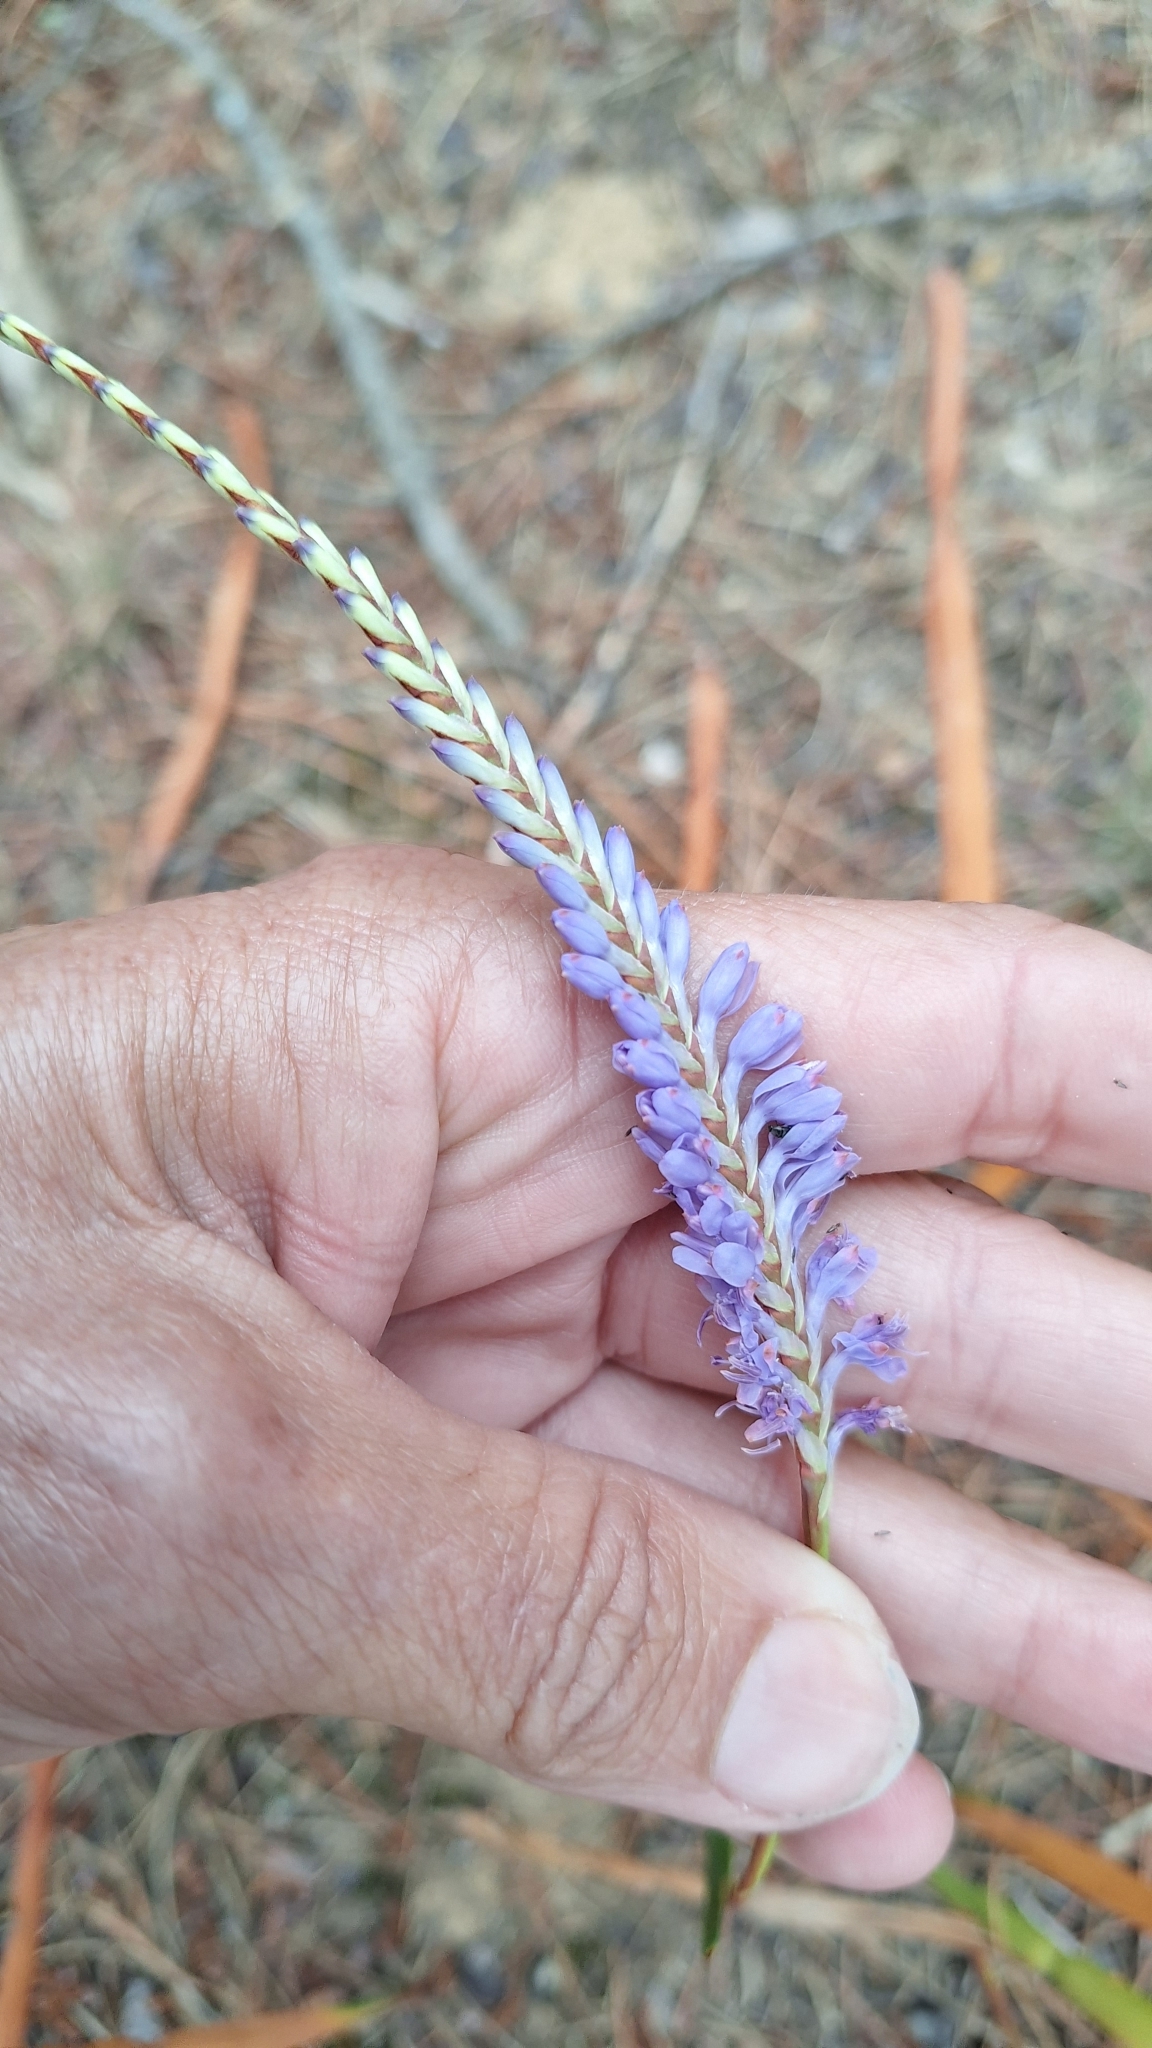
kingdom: Plantae
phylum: Tracheophyta
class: Liliopsida
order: Asparagales
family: Iridaceae
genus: Micranthus
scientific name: Micranthus tubulosus
